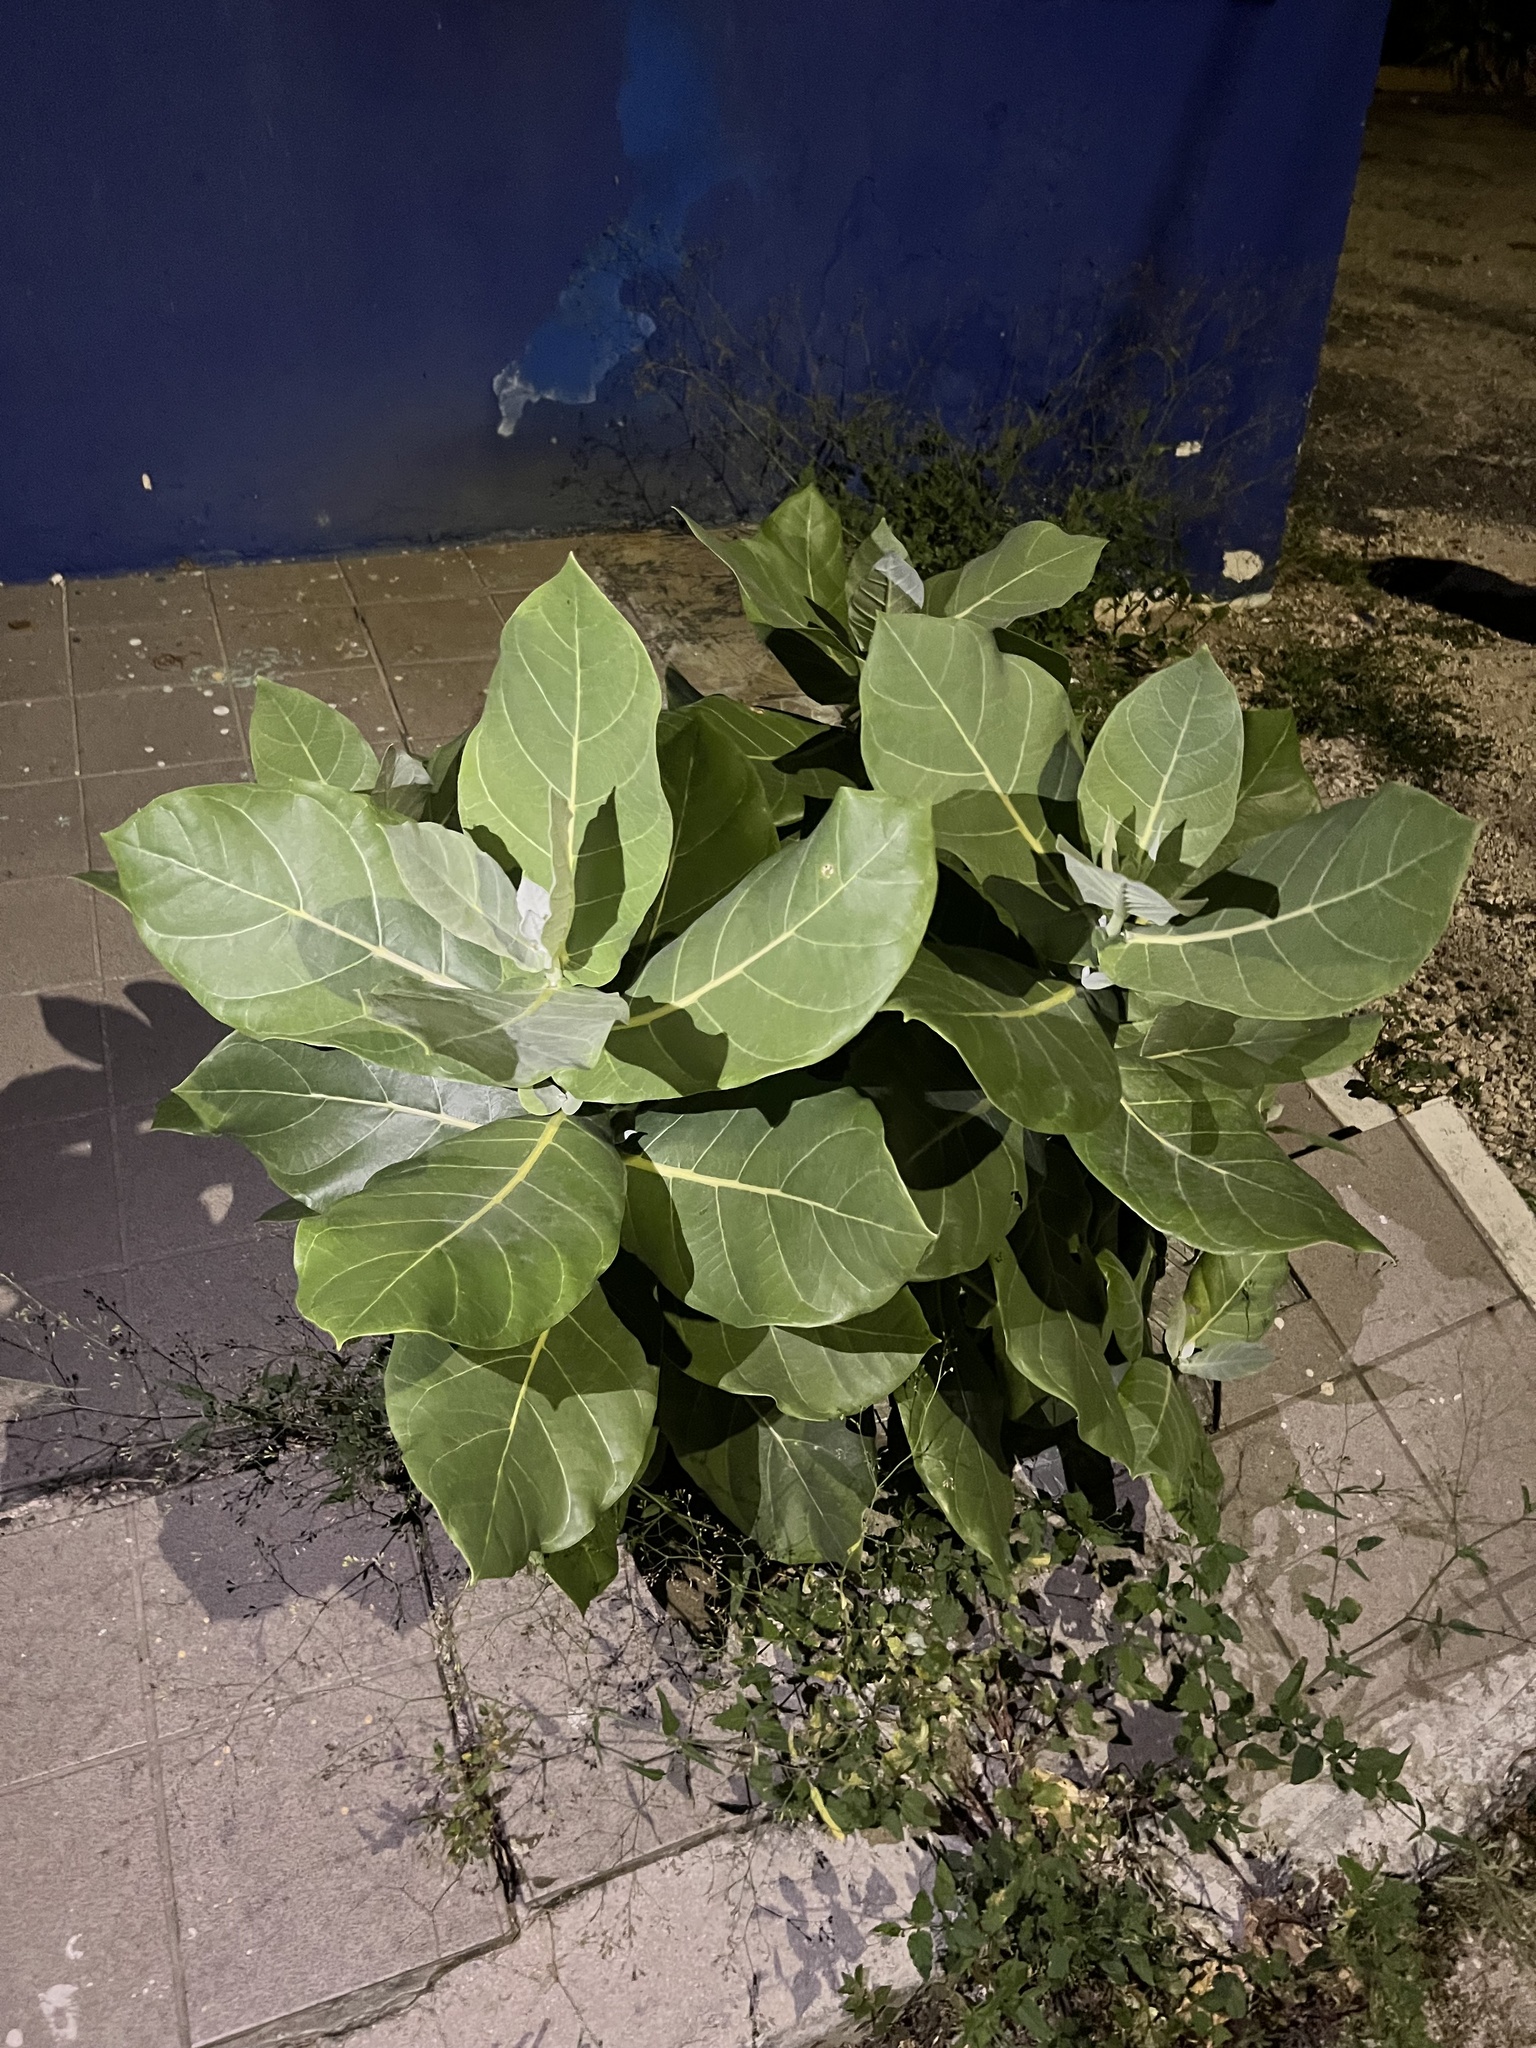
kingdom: Plantae
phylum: Tracheophyta
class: Magnoliopsida
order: Gentianales
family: Apocynaceae
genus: Calotropis
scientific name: Calotropis procera
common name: Roostertree
